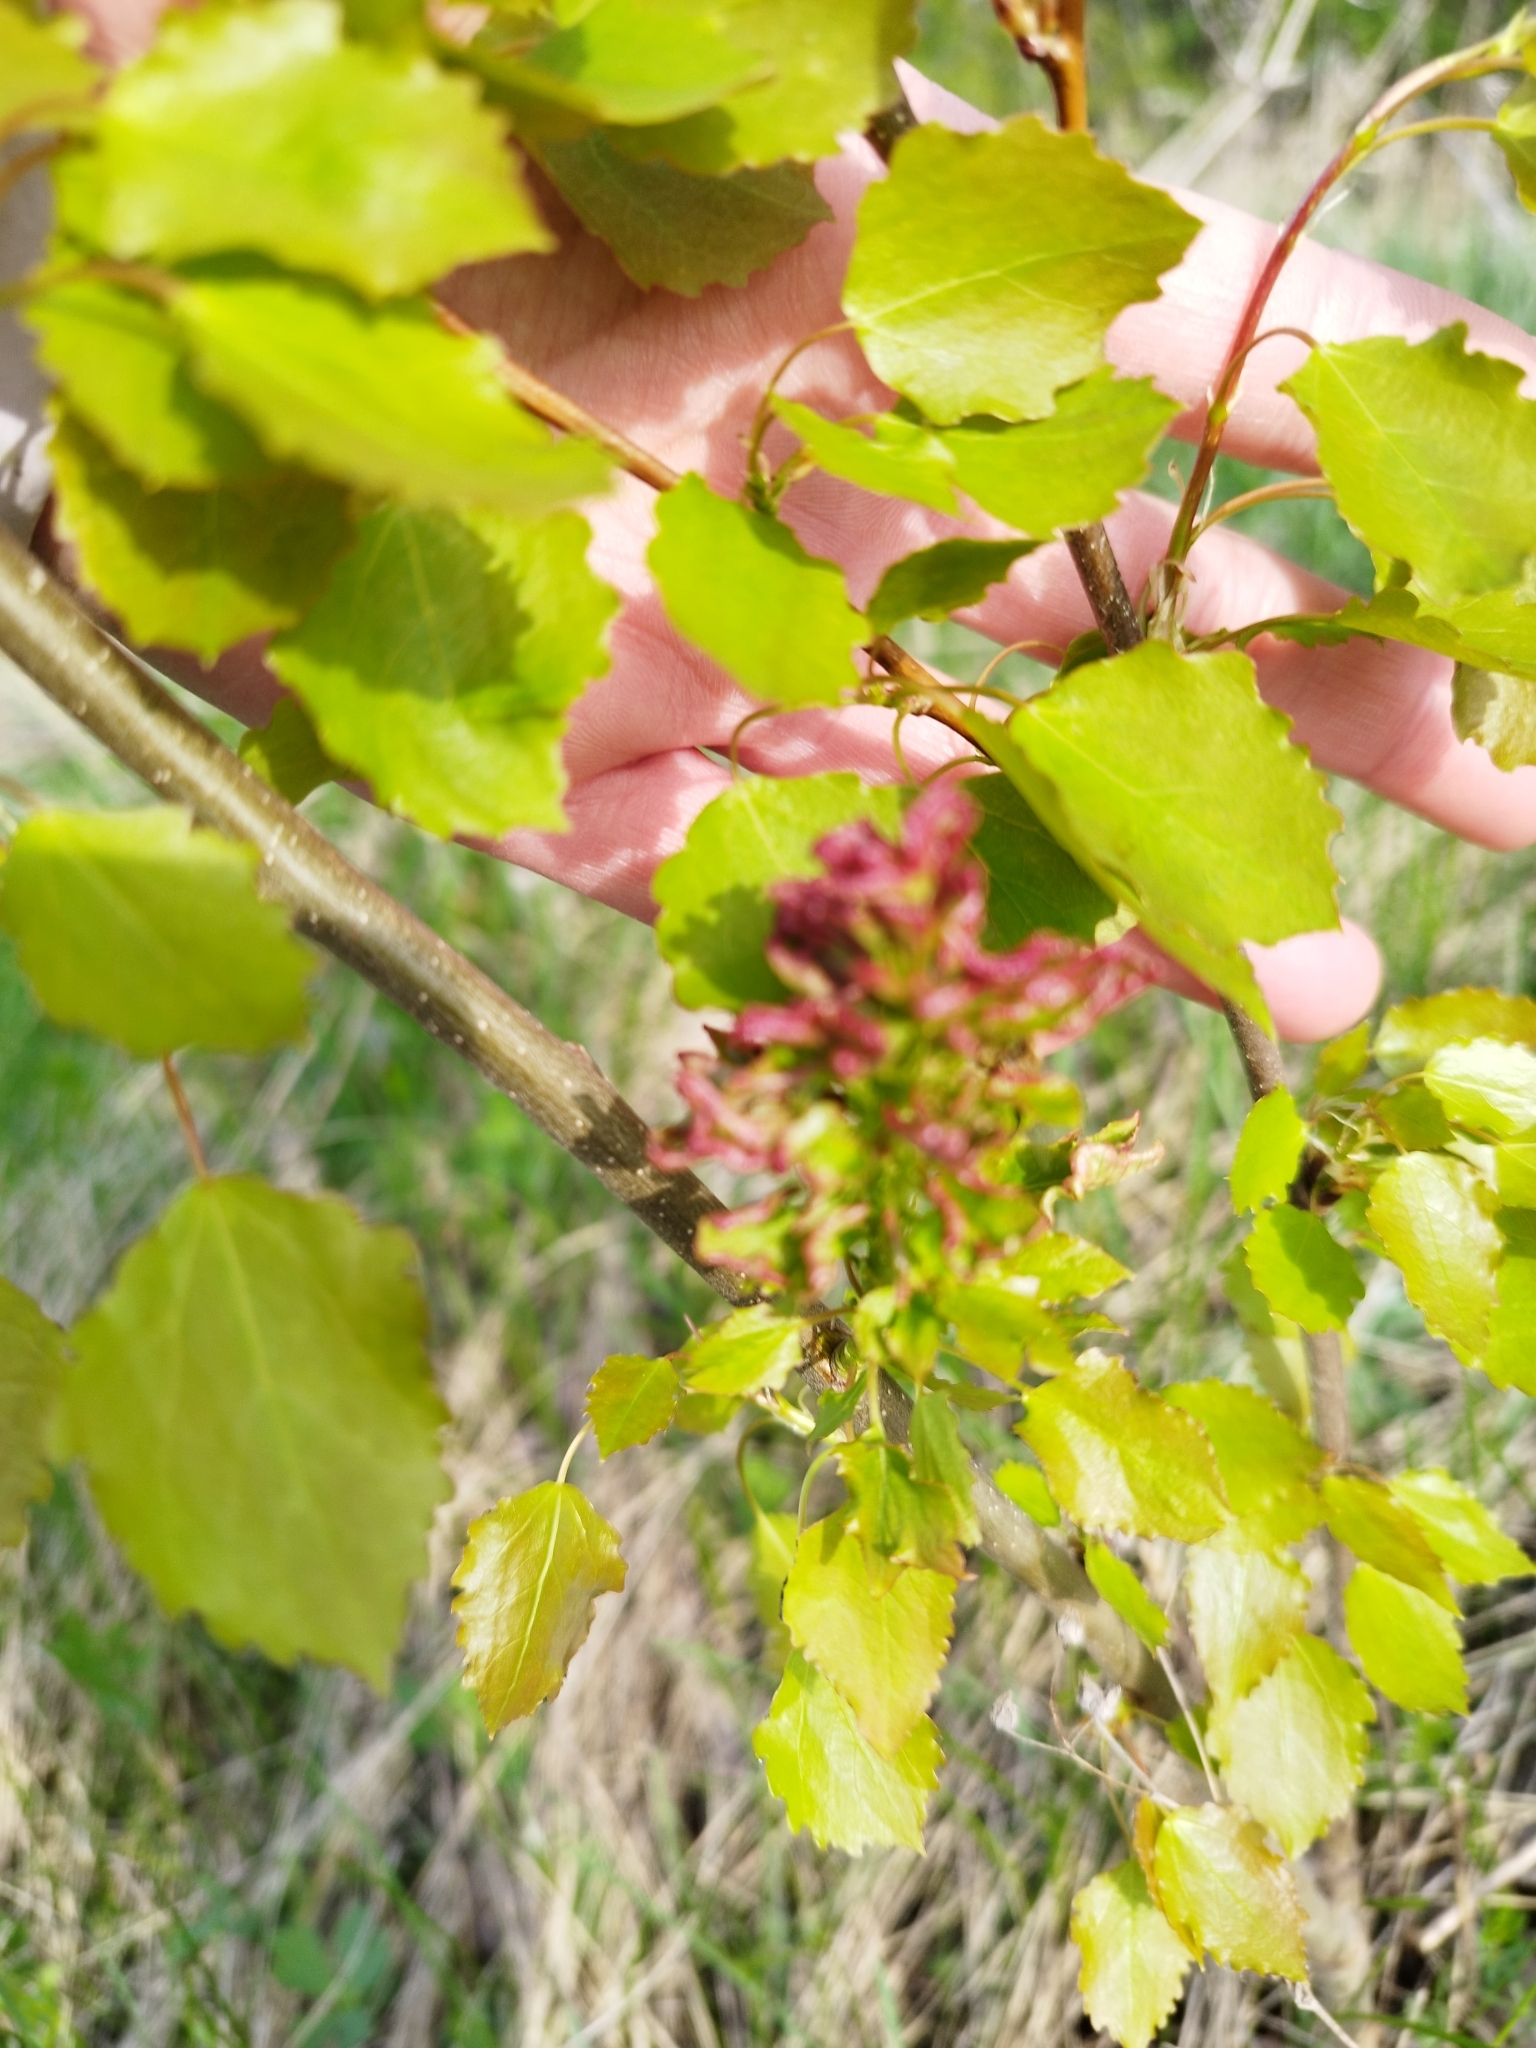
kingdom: Plantae
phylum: Tracheophyta
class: Magnoliopsida
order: Malpighiales
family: Salicaceae
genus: Populus
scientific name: Populus tremula
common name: European aspen
